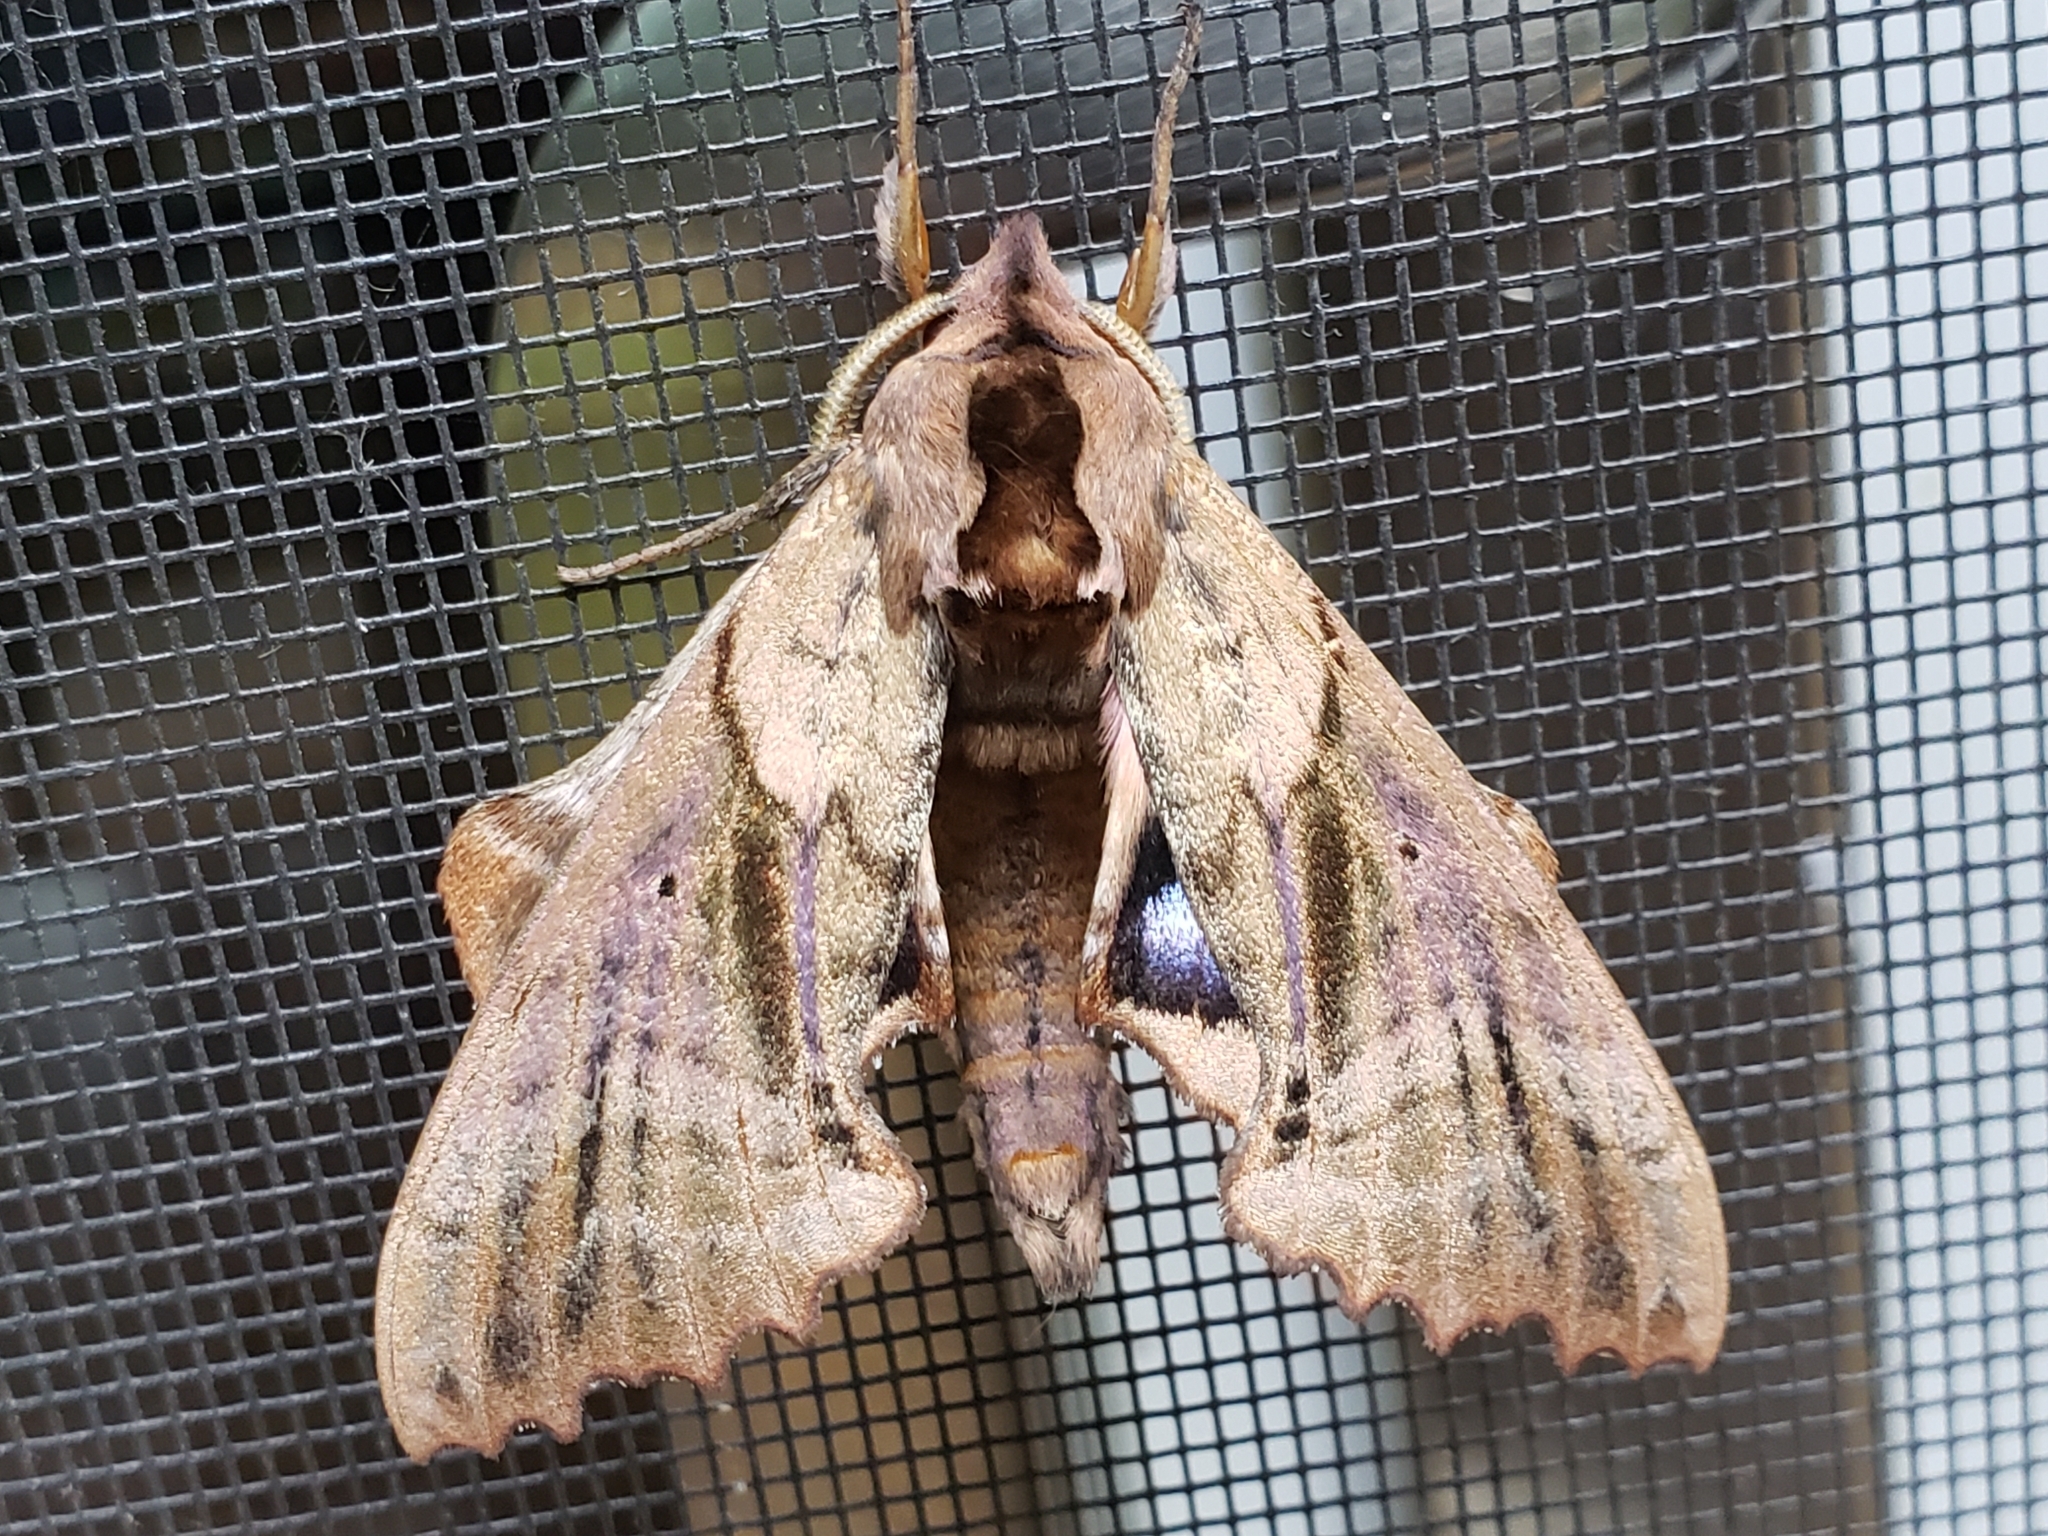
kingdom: Animalia
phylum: Arthropoda
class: Insecta
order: Lepidoptera
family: Sphingidae
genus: Paonias
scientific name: Paonias excaecata
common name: Blind-eyed sphinx
